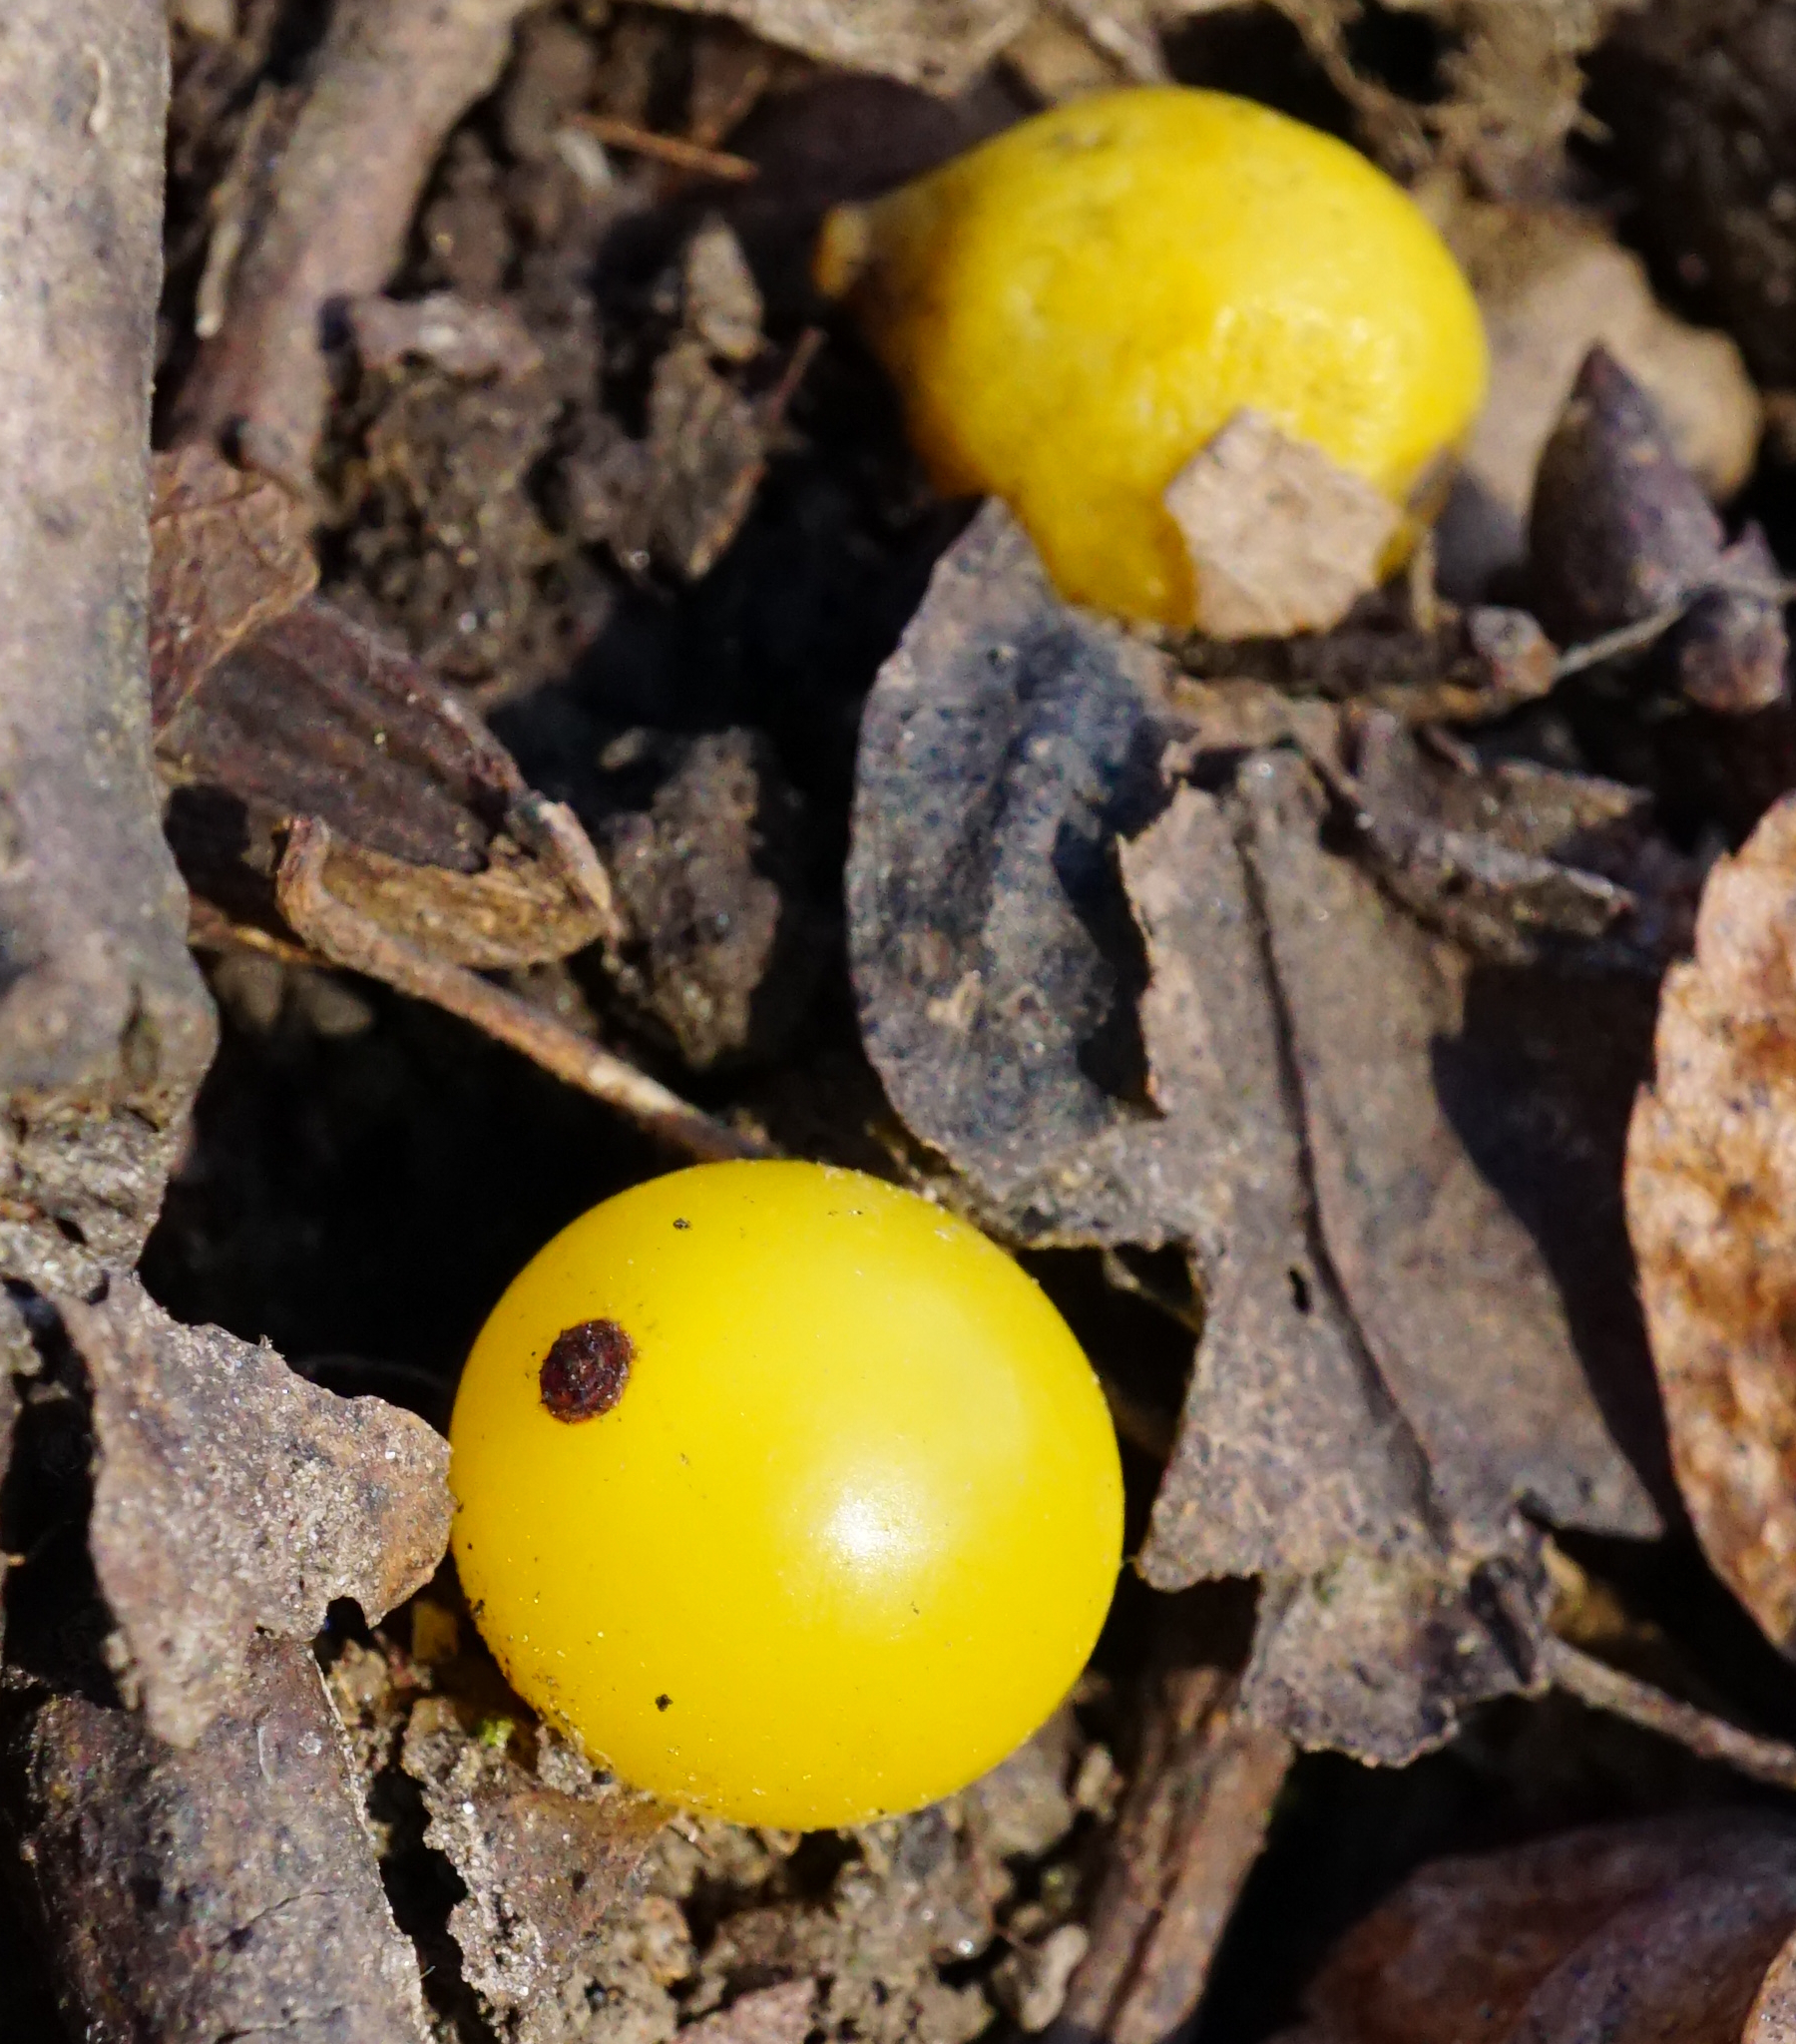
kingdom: Plantae
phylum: Tracheophyta
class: Magnoliopsida
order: Santalales
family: Loranthaceae
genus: Loranthus
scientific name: Loranthus europaeus
